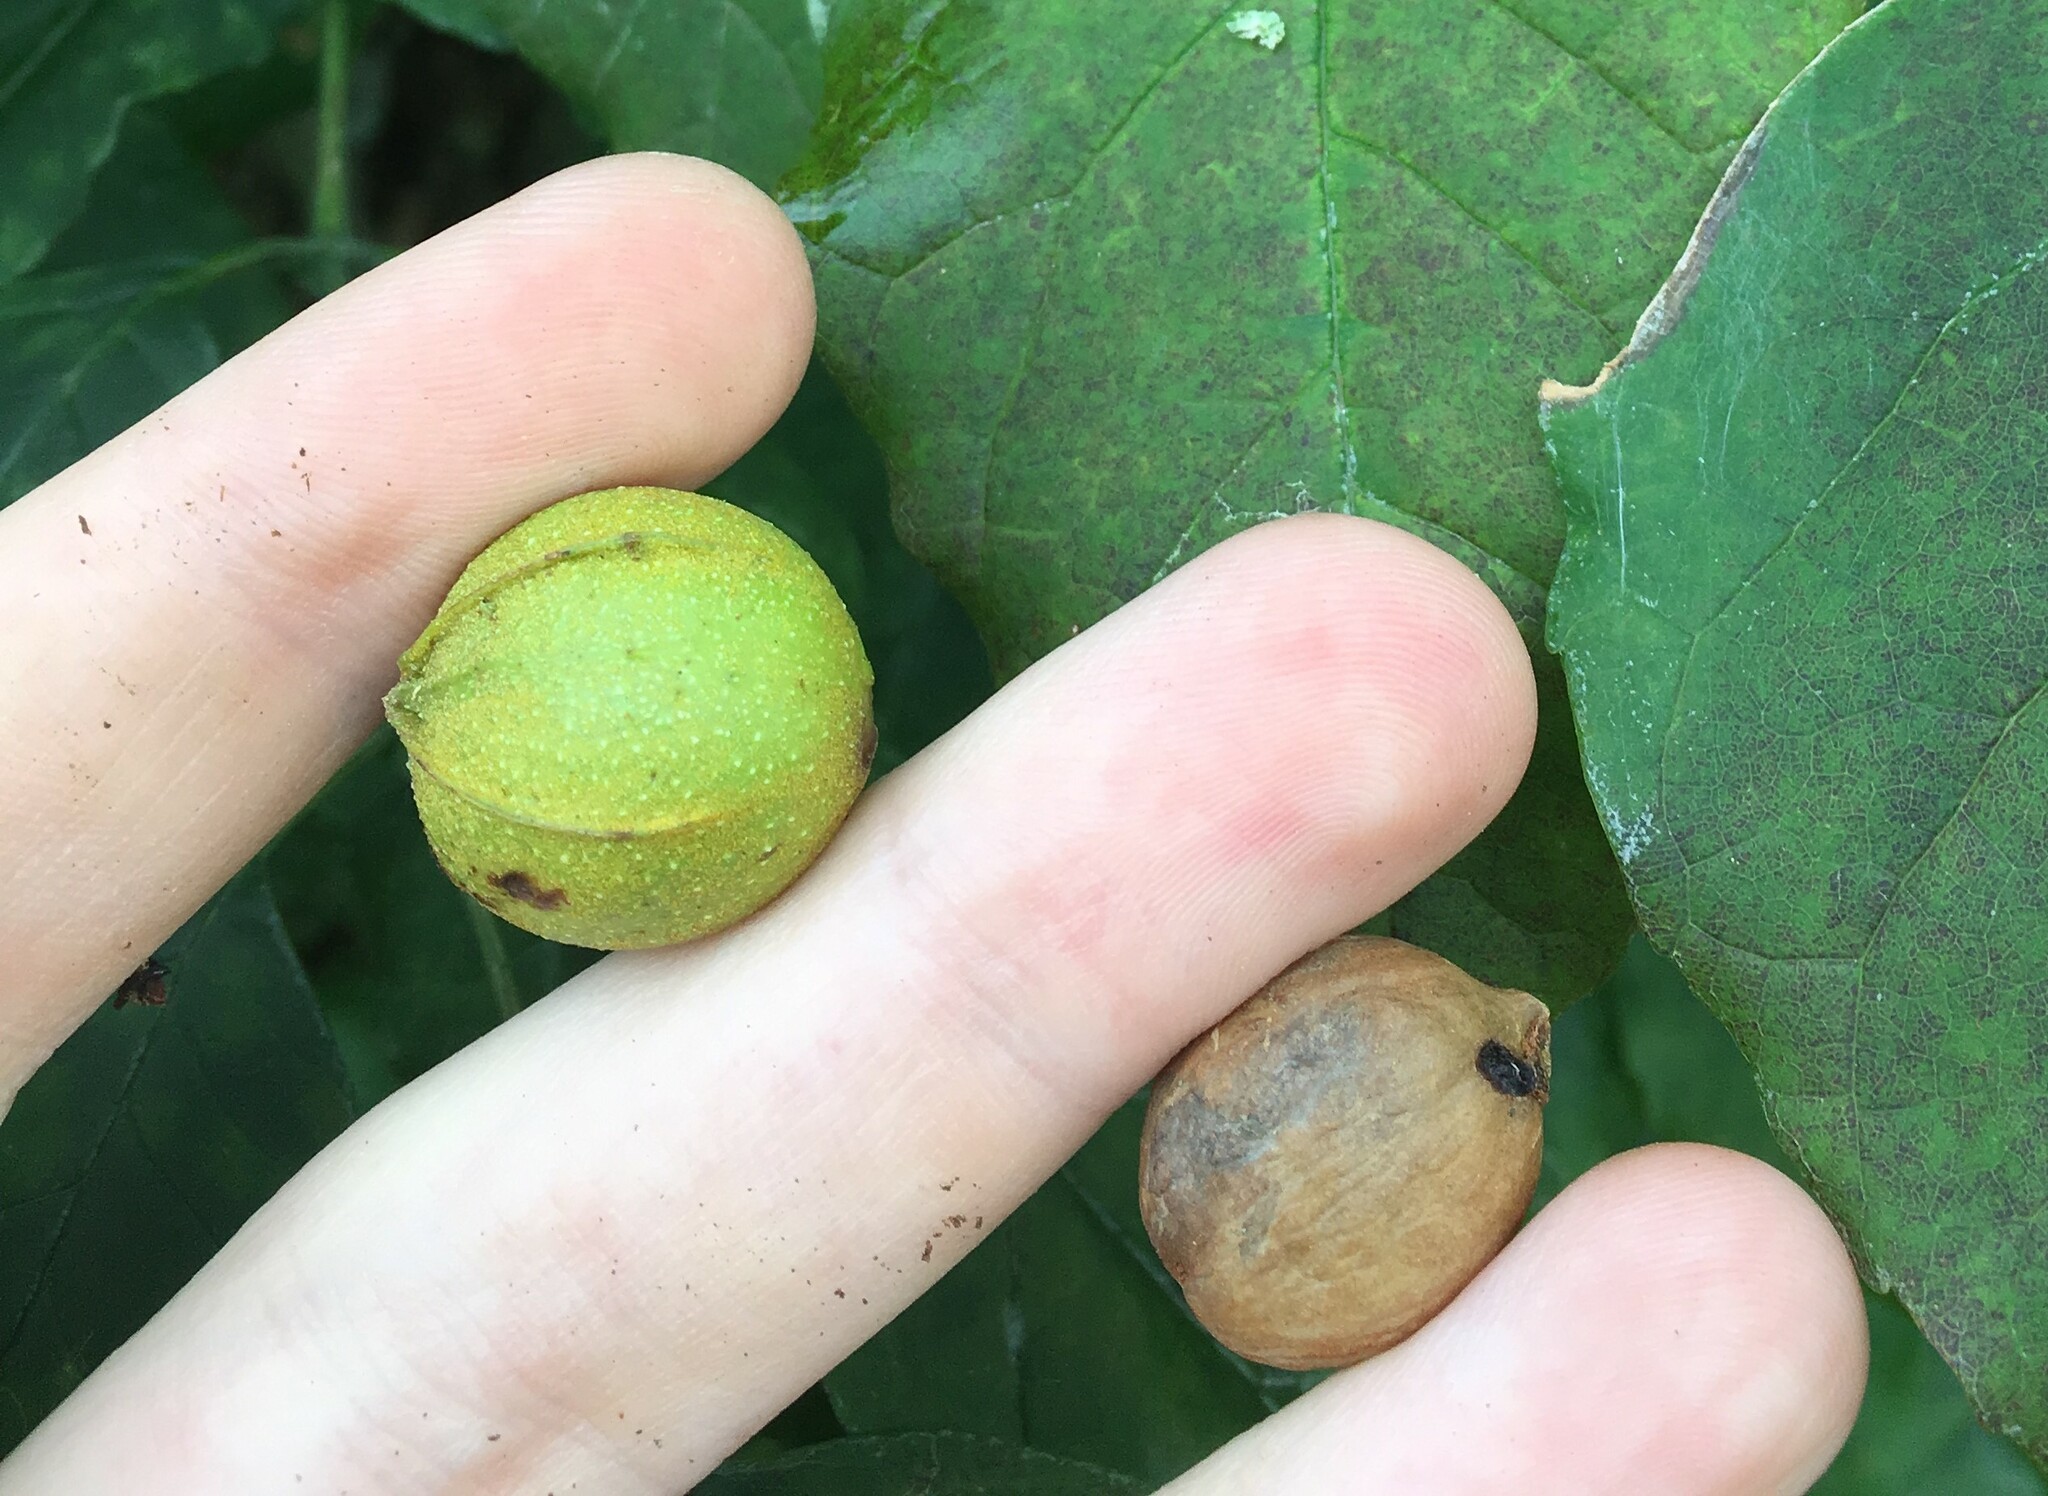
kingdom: Plantae
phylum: Tracheophyta
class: Magnoliopsida
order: Fagales
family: Juglandaceae
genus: Carya
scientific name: Carya cordiformis
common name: Bitternut hickory
